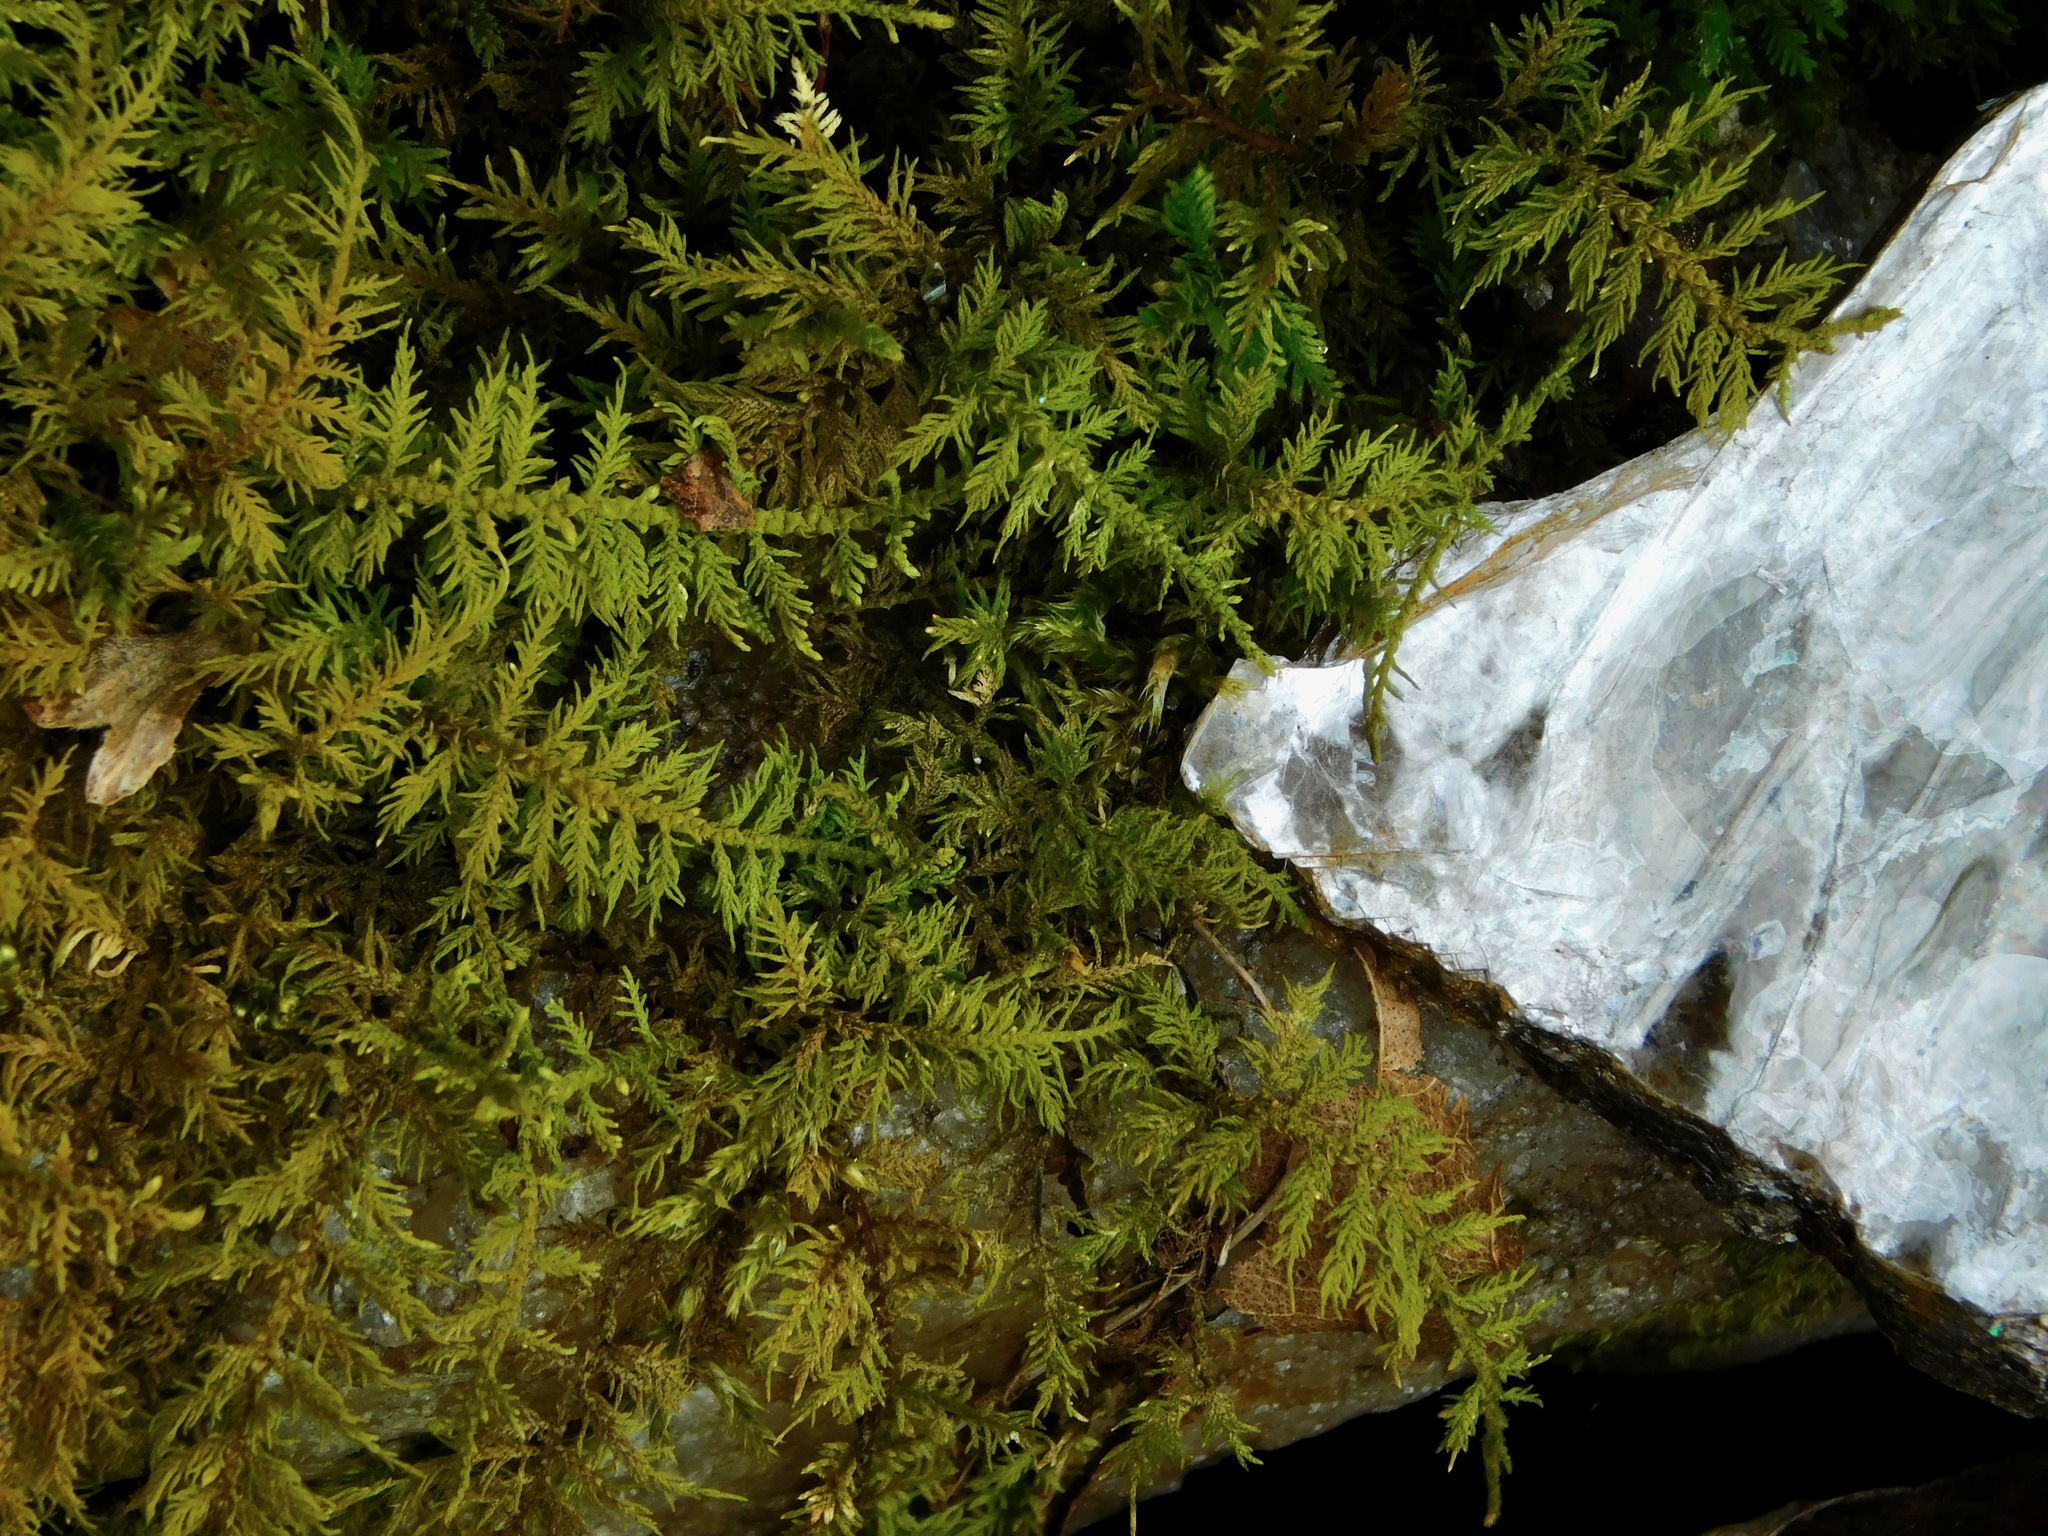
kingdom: Plantae
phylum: Bryophyta
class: Bryopsida
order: Hypnales
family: Thuidiaceae
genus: Thuidium
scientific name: Thuidium delicatulum
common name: Delicate fern moss
